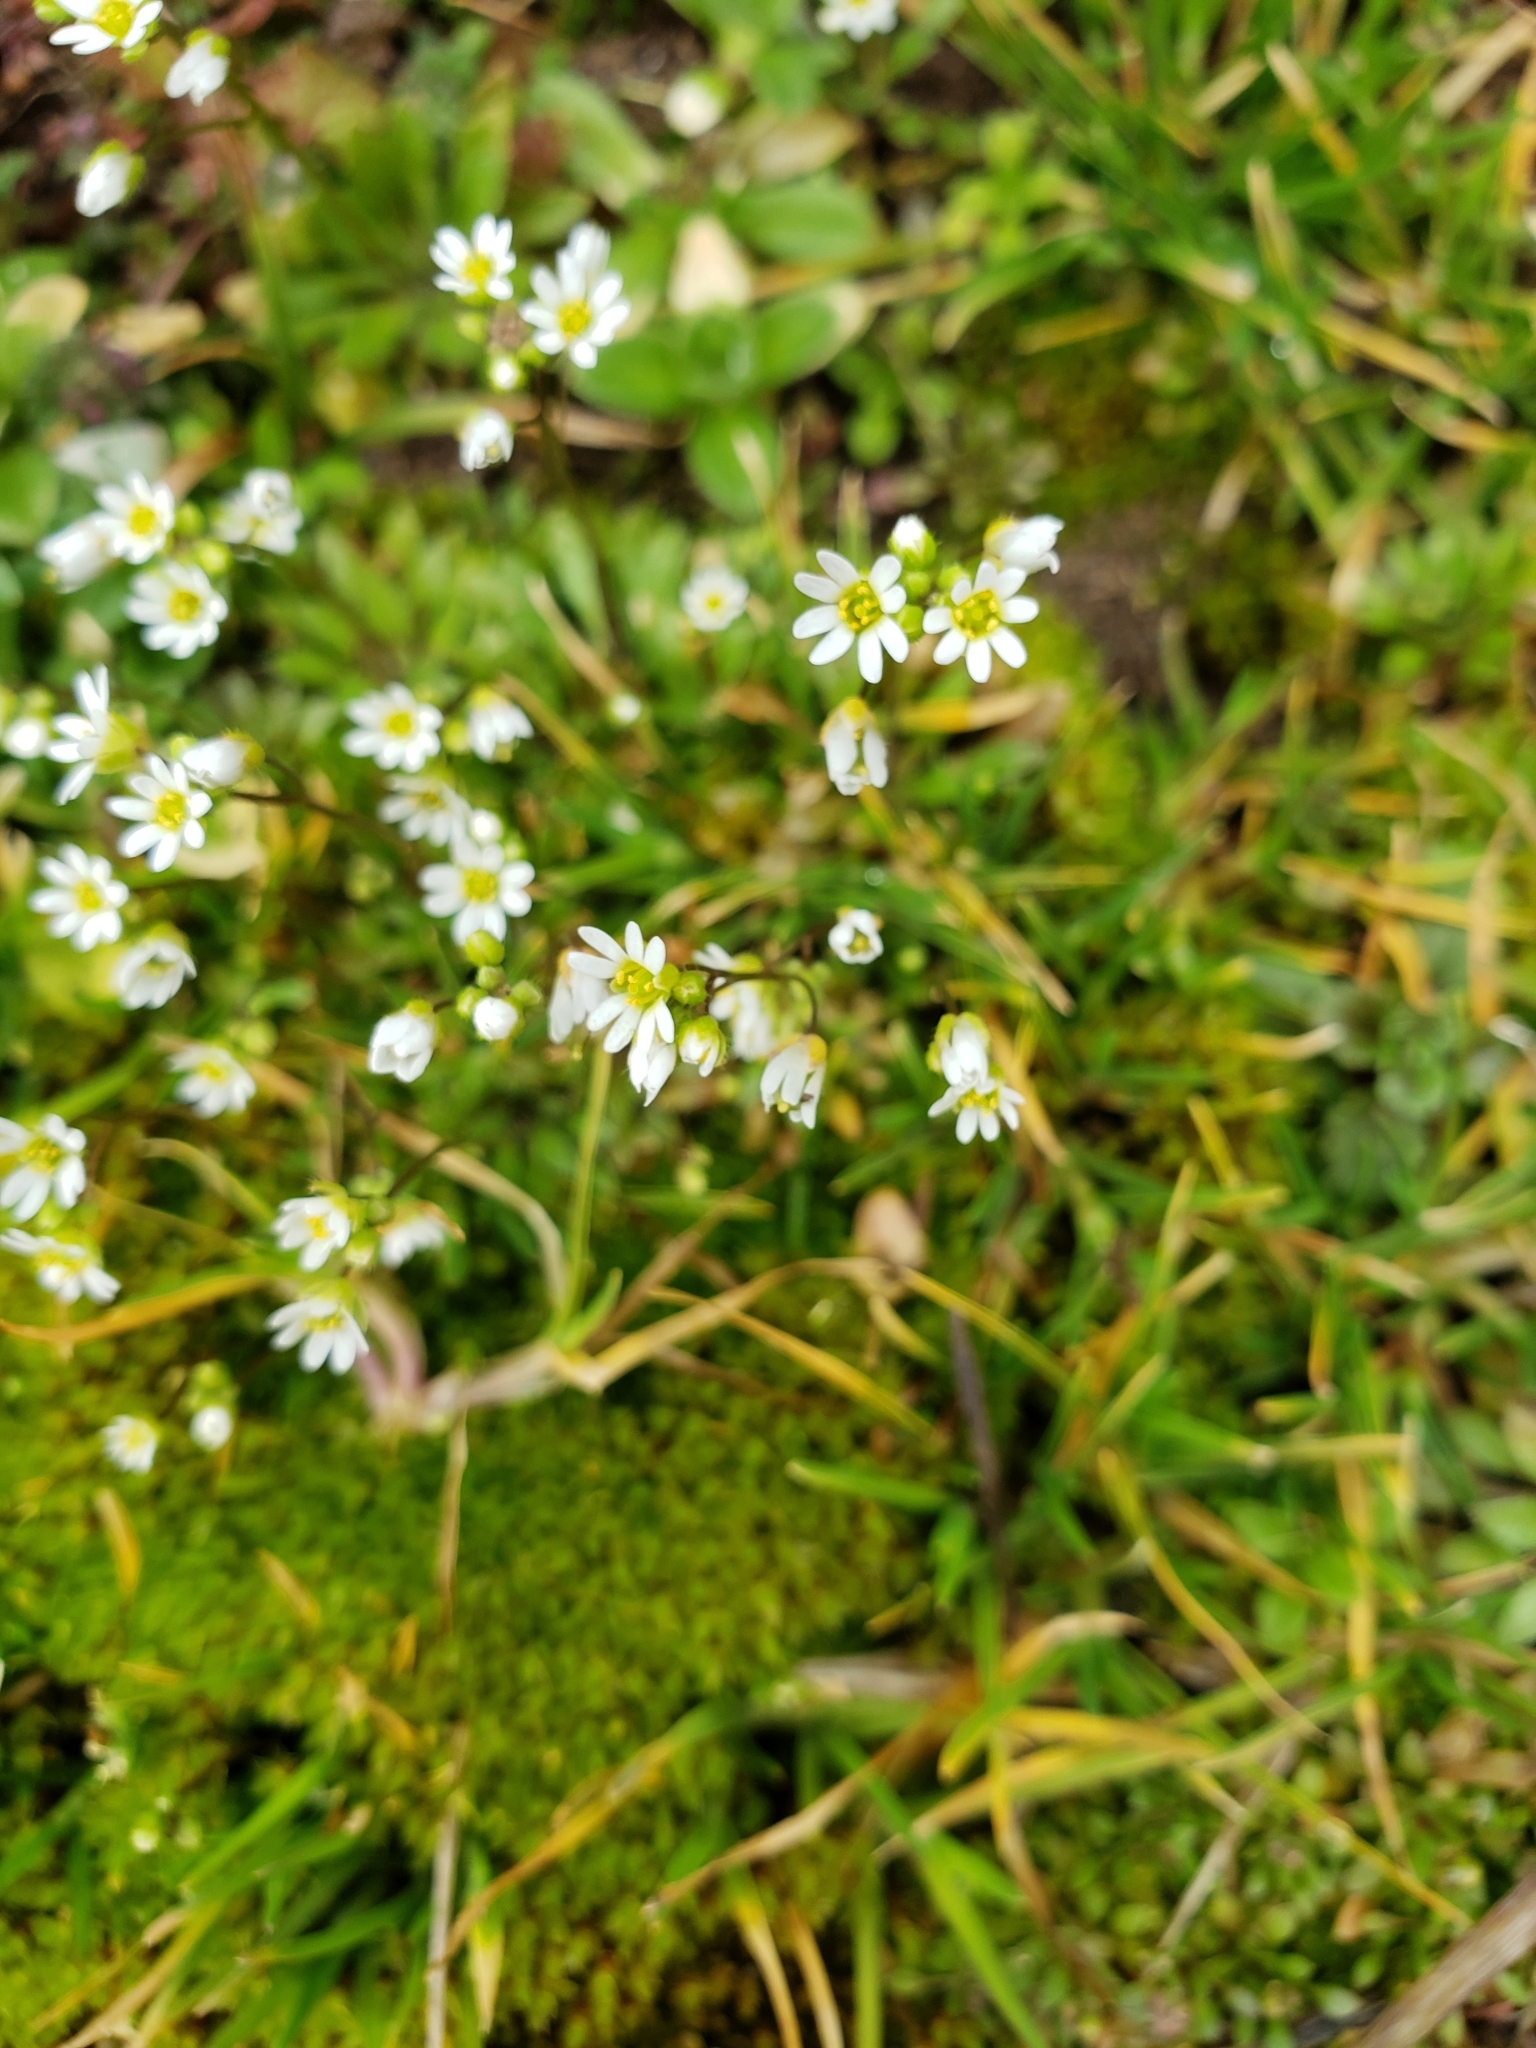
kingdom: Plantae
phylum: Tracheophyta
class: Magnoliopsida
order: Brassicales
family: Brassicaceae
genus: Draba
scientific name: Draba verna
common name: Spring draba
